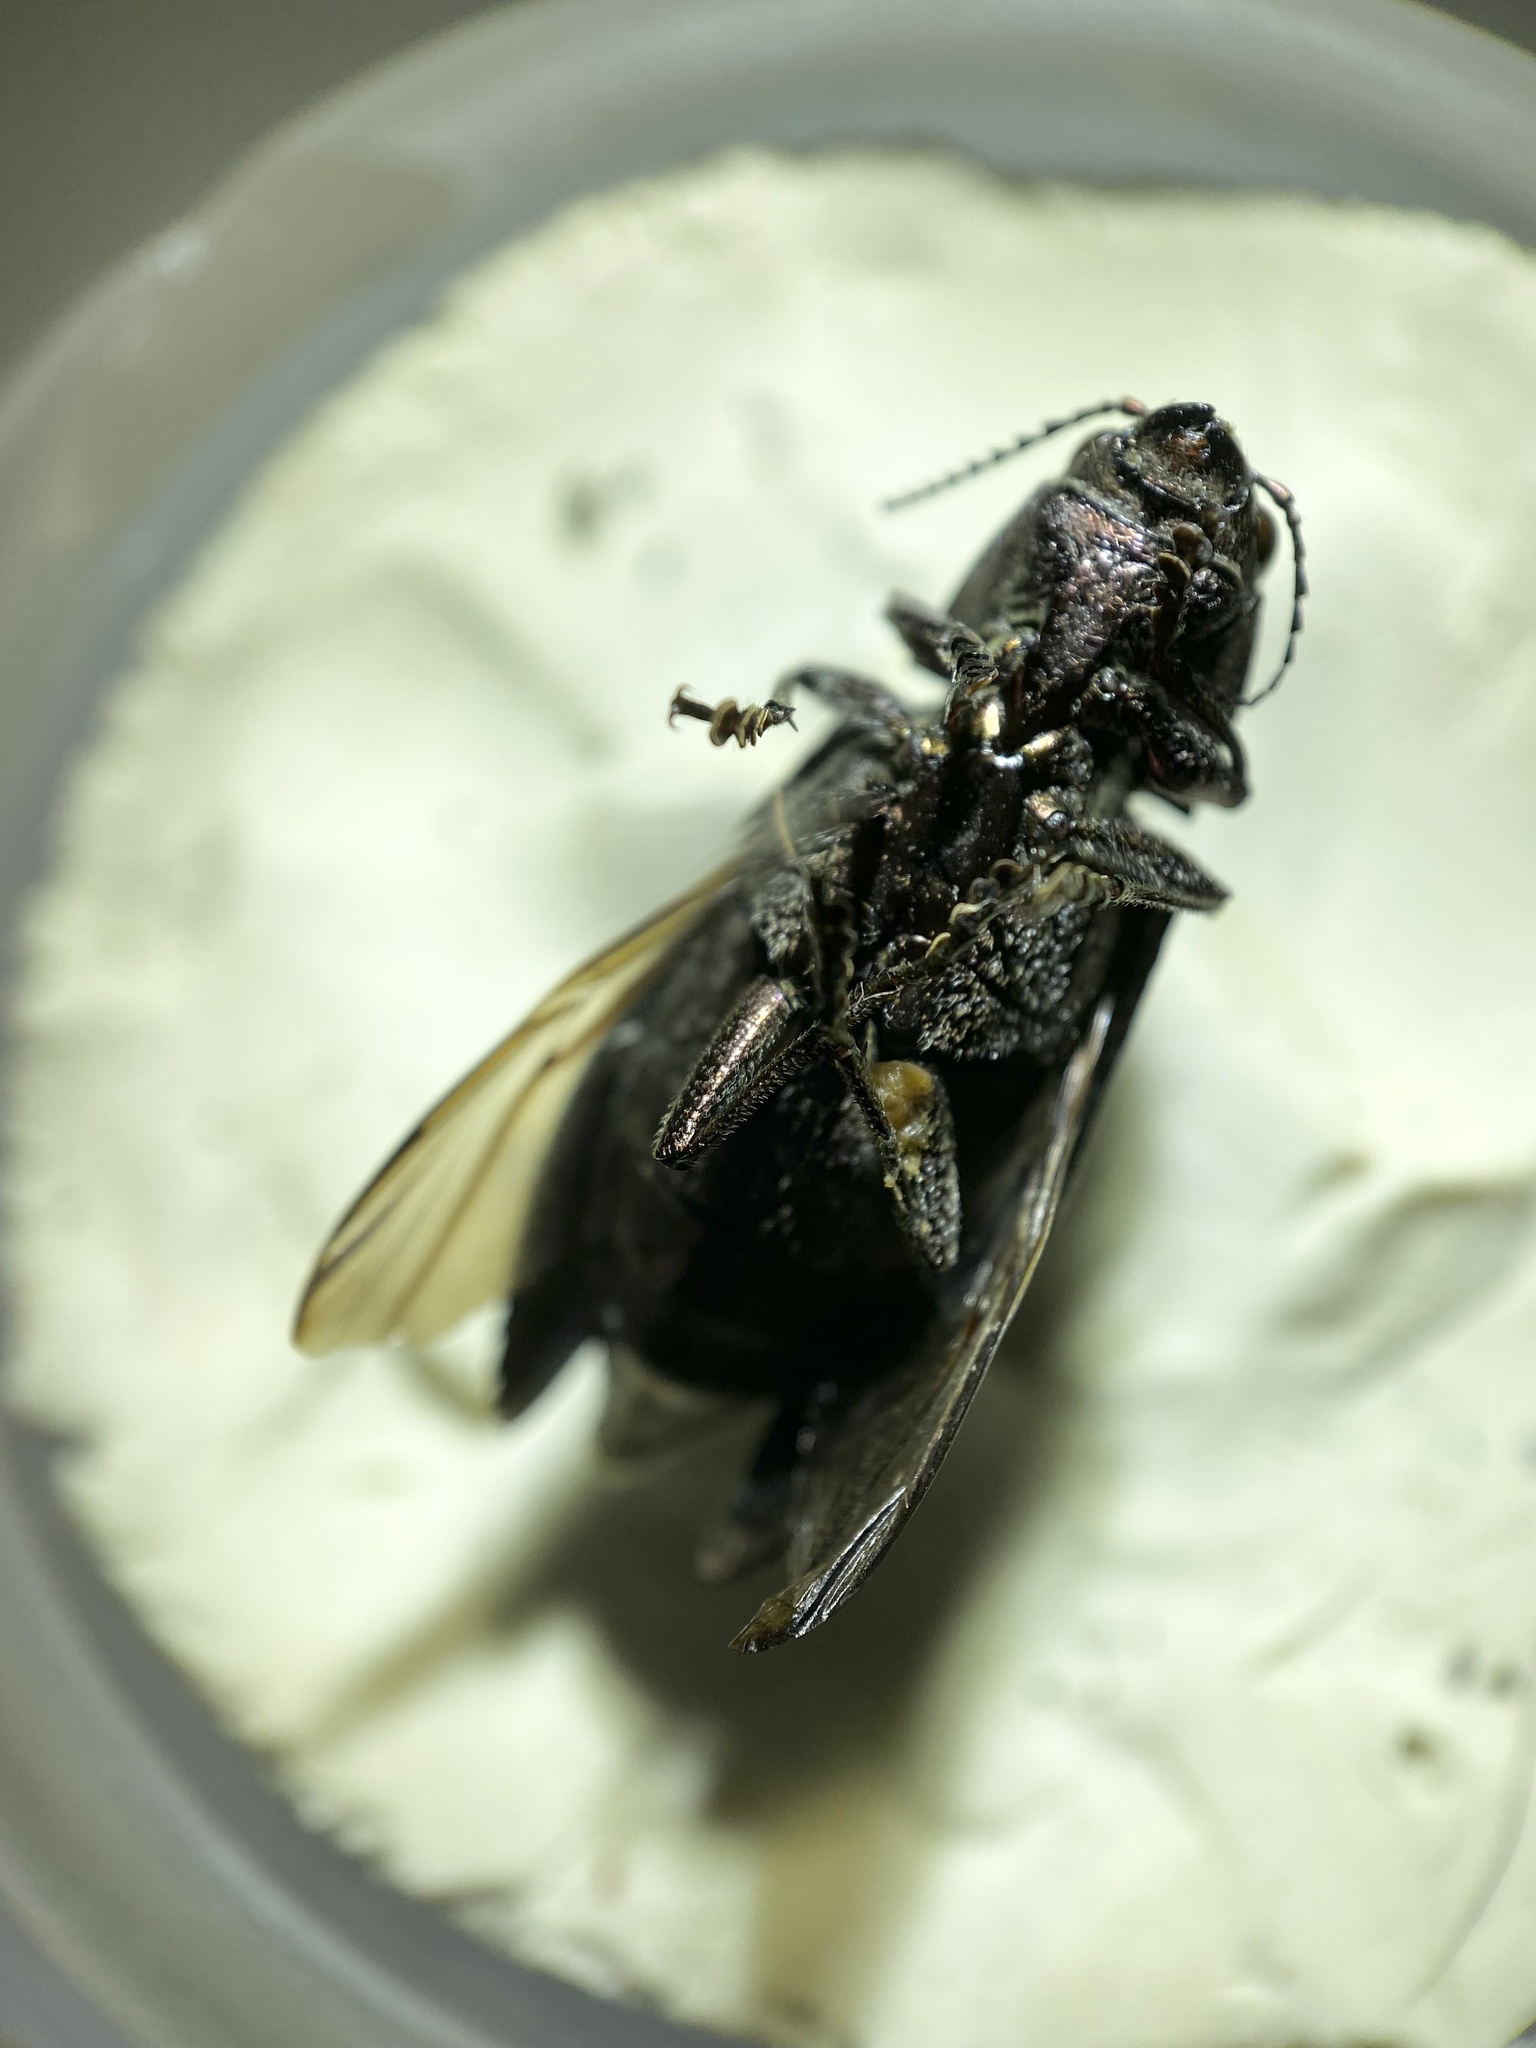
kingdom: Animalia
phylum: Arthropoda
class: Insecta
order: Coleoptera
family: Buprestidae
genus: Texania
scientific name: Texania campestris
